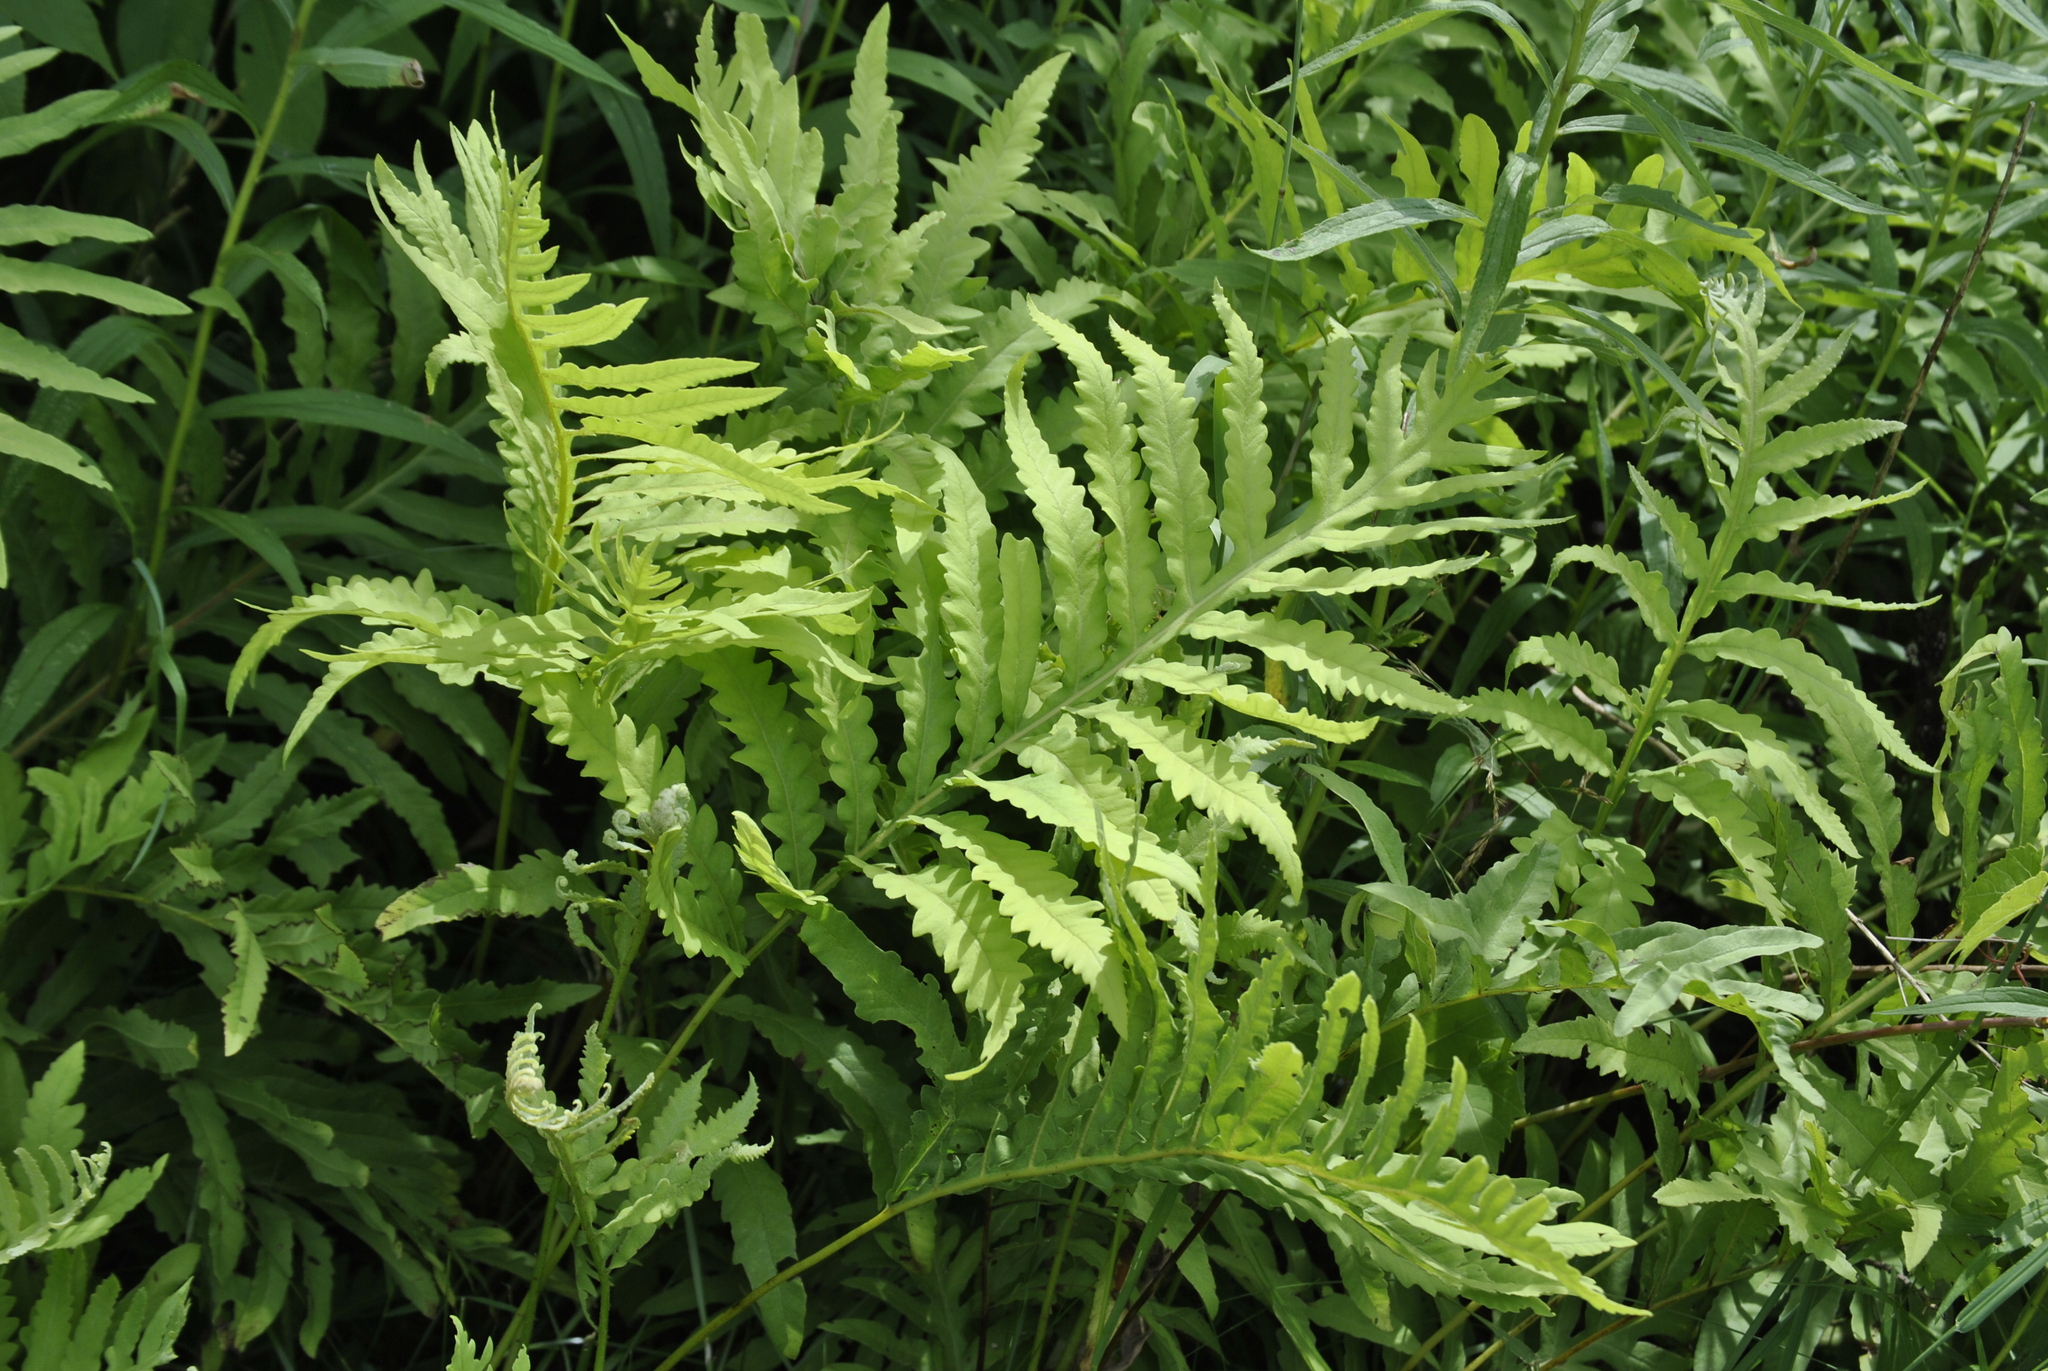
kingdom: Plantae
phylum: Tracheophyta
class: Polypodiopsida
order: Polypodiales
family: Onocleaceae
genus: Onoclea
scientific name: Onoclea sensibilis
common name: Sensitive fern
